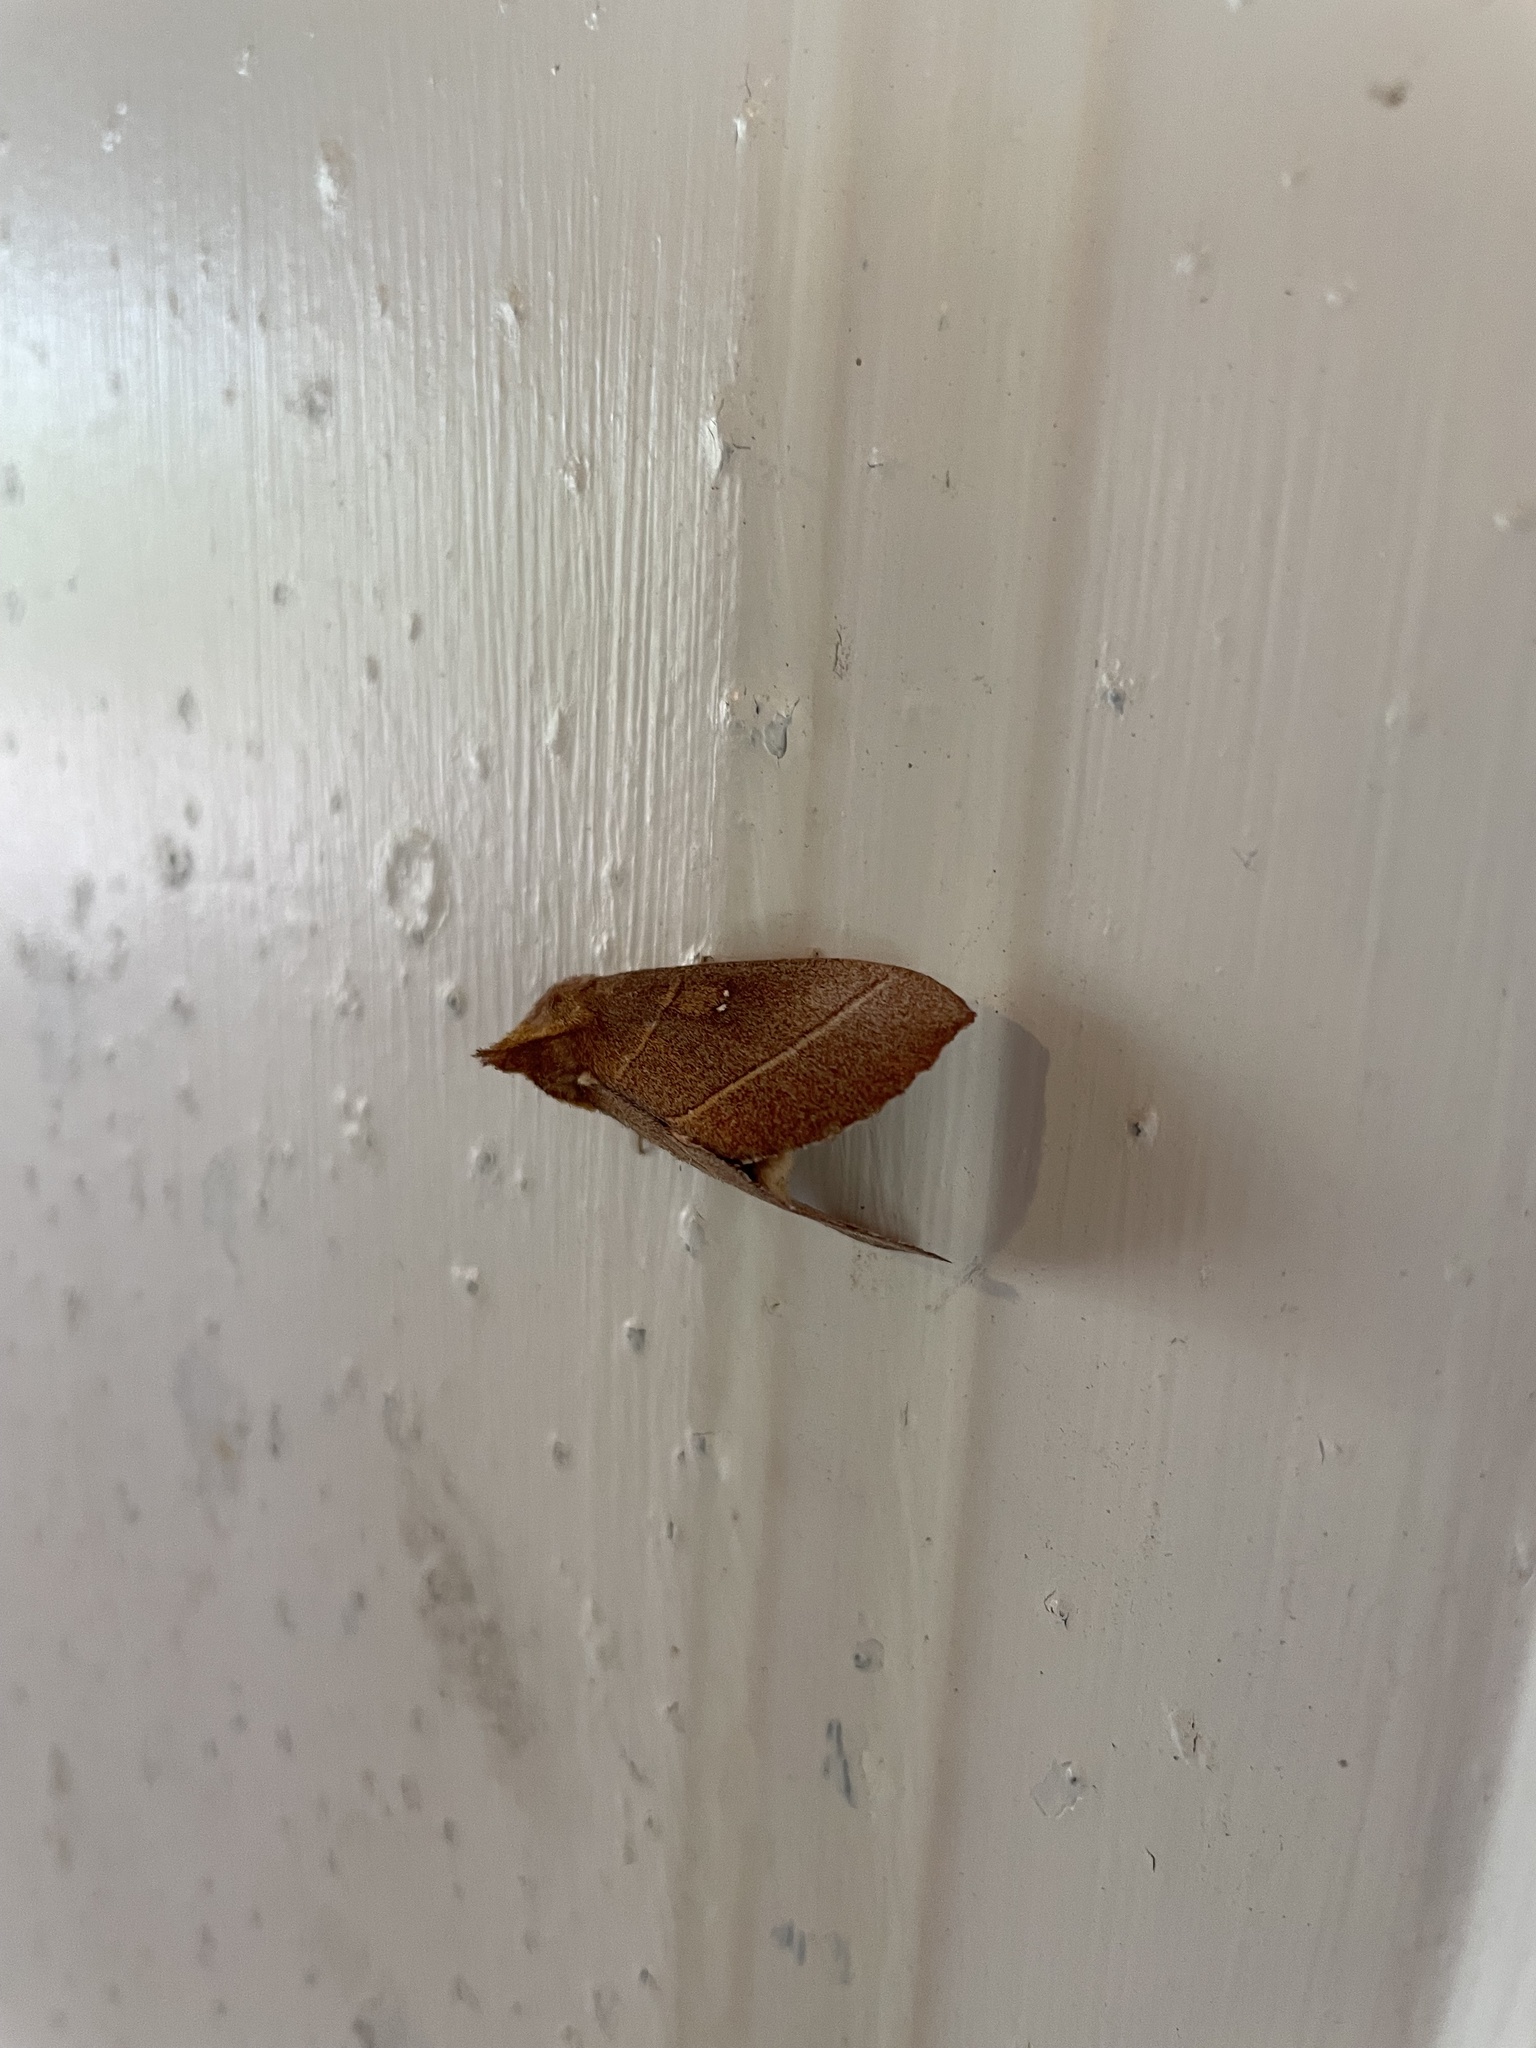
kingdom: Animalia
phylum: Arthropoda
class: Insecta
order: Lepidoptera
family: Notodontidae
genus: Nadata
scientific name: Nadata gibbosa
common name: White-dotted prominent
